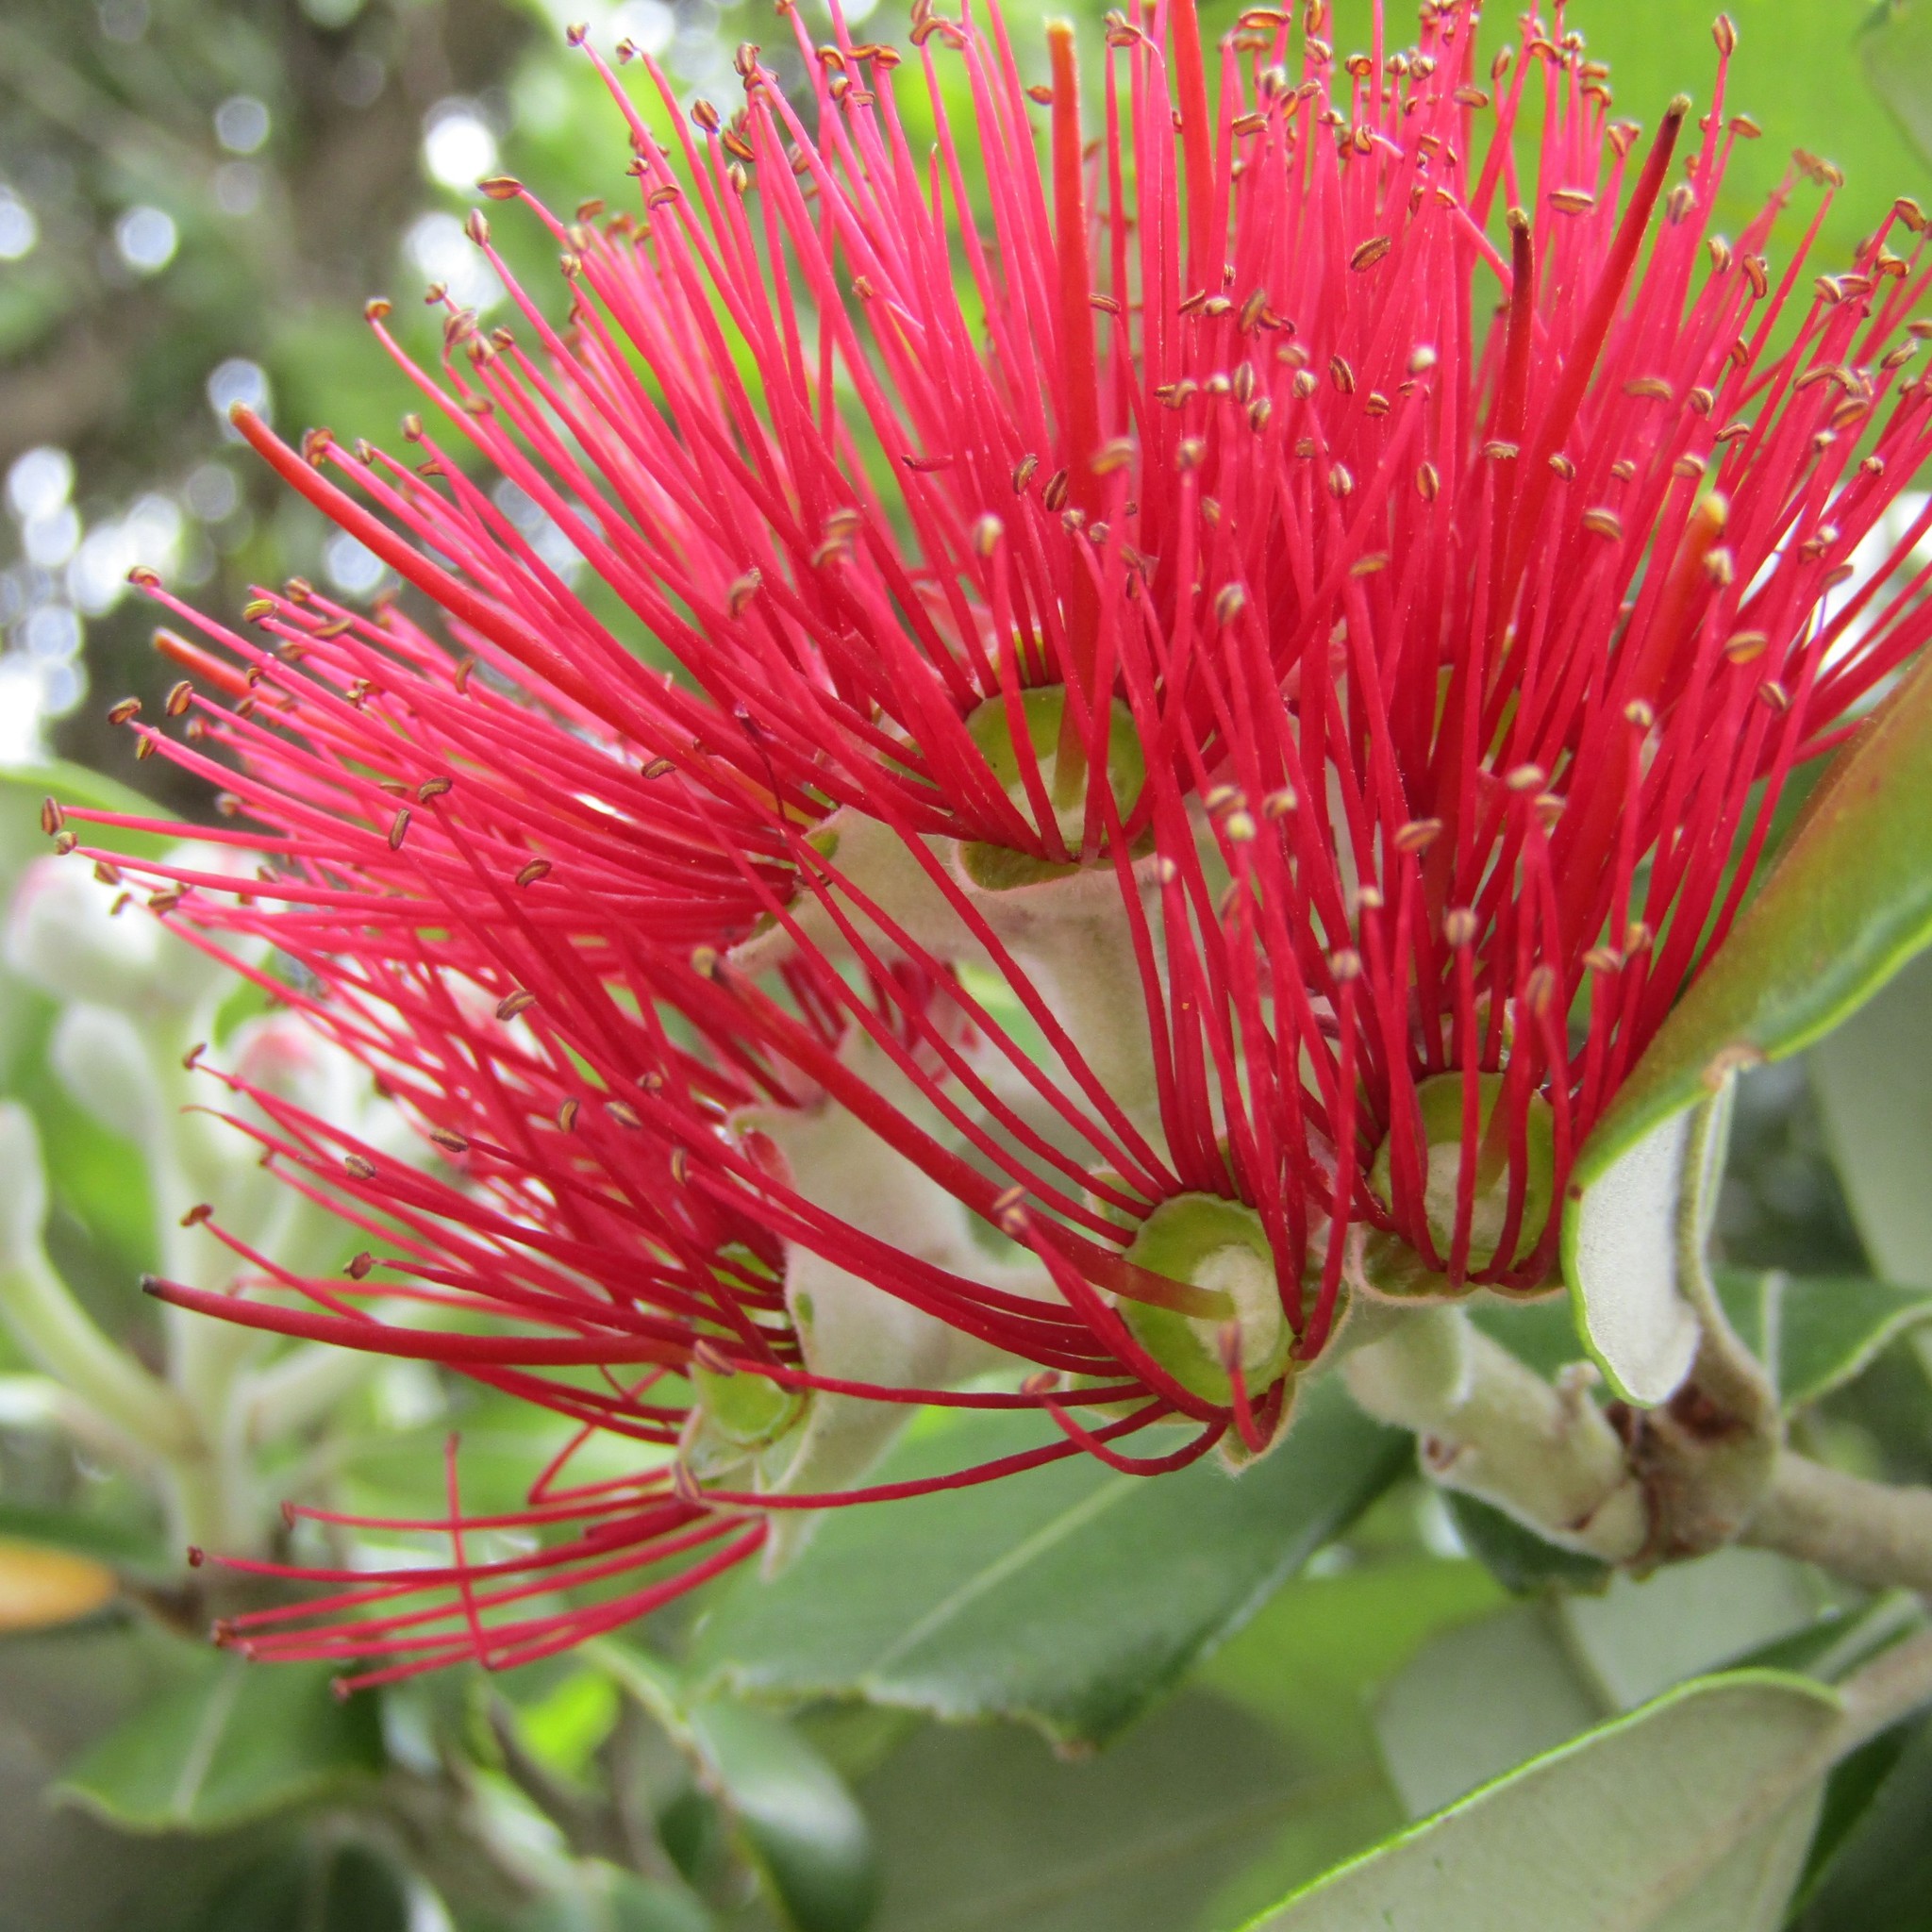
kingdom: Plantae
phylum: Tracheophyta
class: Magnoliopsida
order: Myrtales
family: Myrtaceae
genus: Metrosideros
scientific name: Metrosideros excelsa
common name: New zealand christmastree
